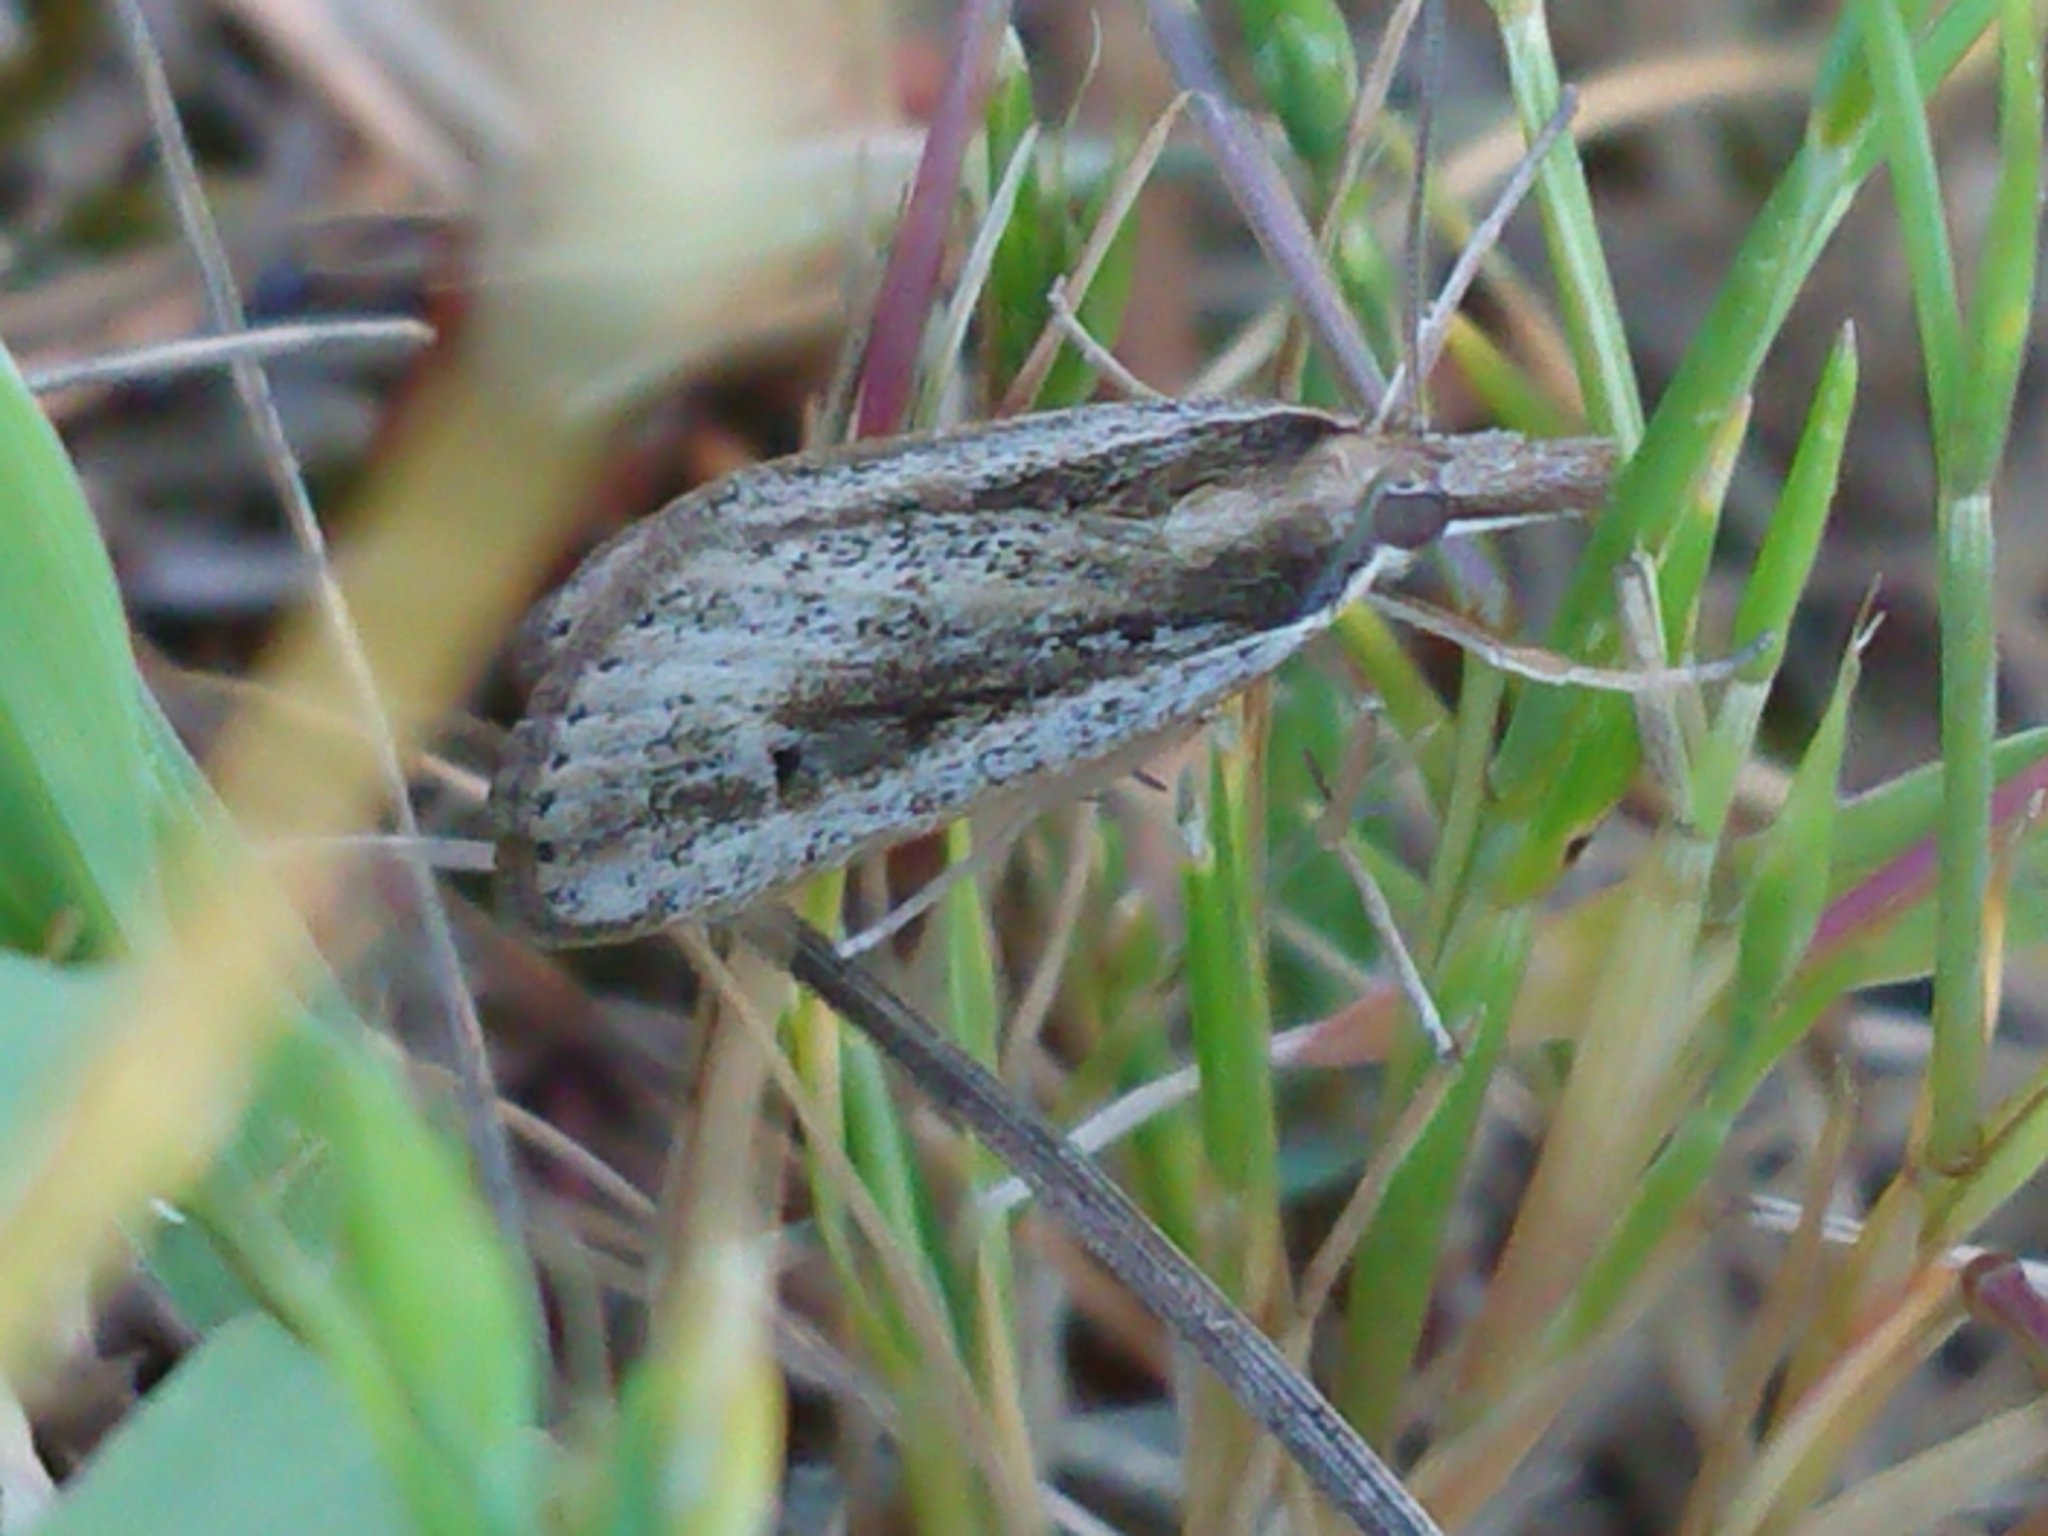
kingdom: Animalia
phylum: Arthropoda
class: Insecta
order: Lepidoptera
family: Crambidae
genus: Eudonia
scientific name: Eudonia sabulosella
